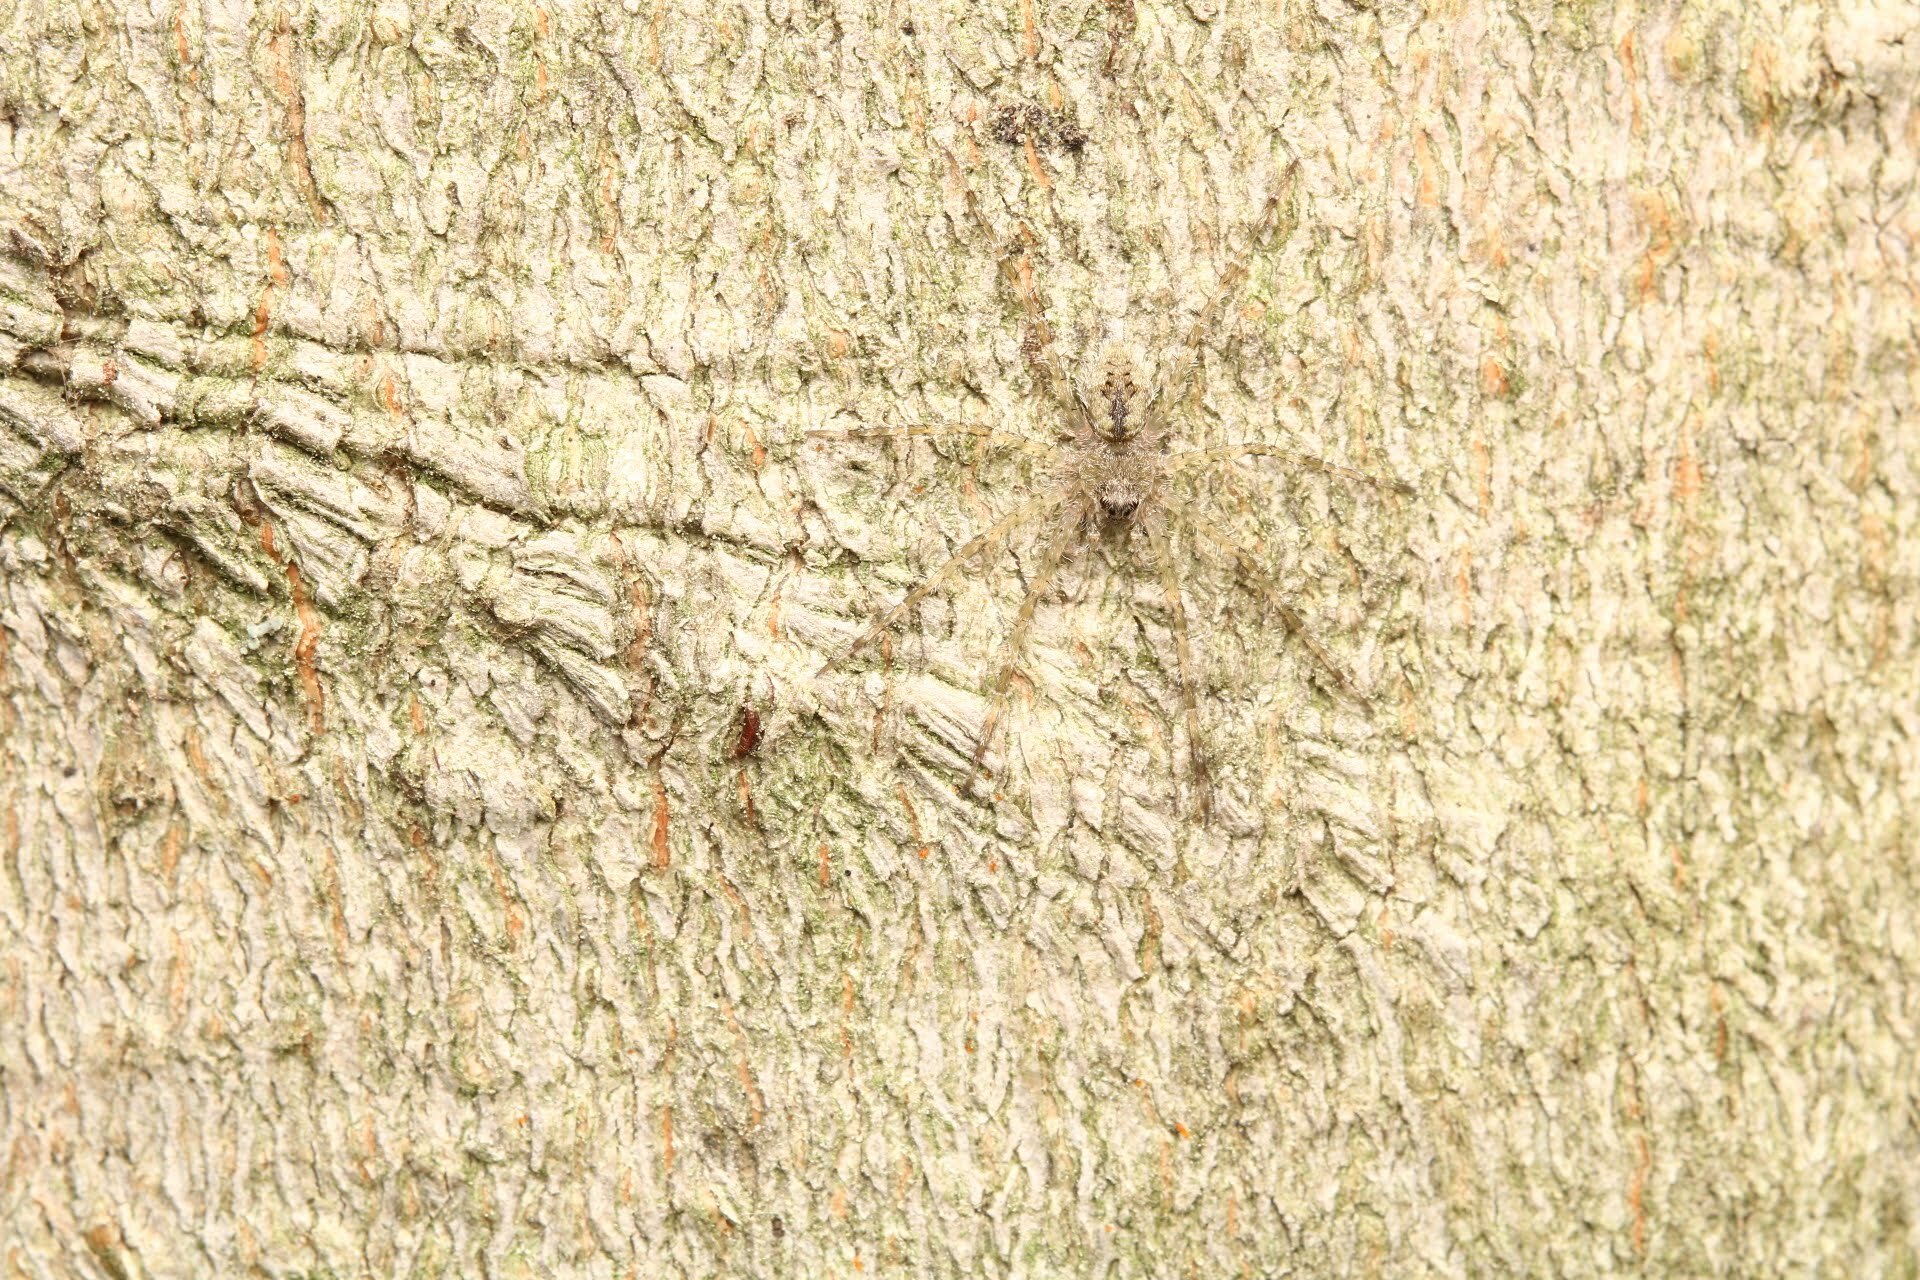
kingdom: Animalia
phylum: Arthropoda
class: Arachnida
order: Araneae
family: Pisauridae
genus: Dolomedes
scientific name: Dolomedes albineus
